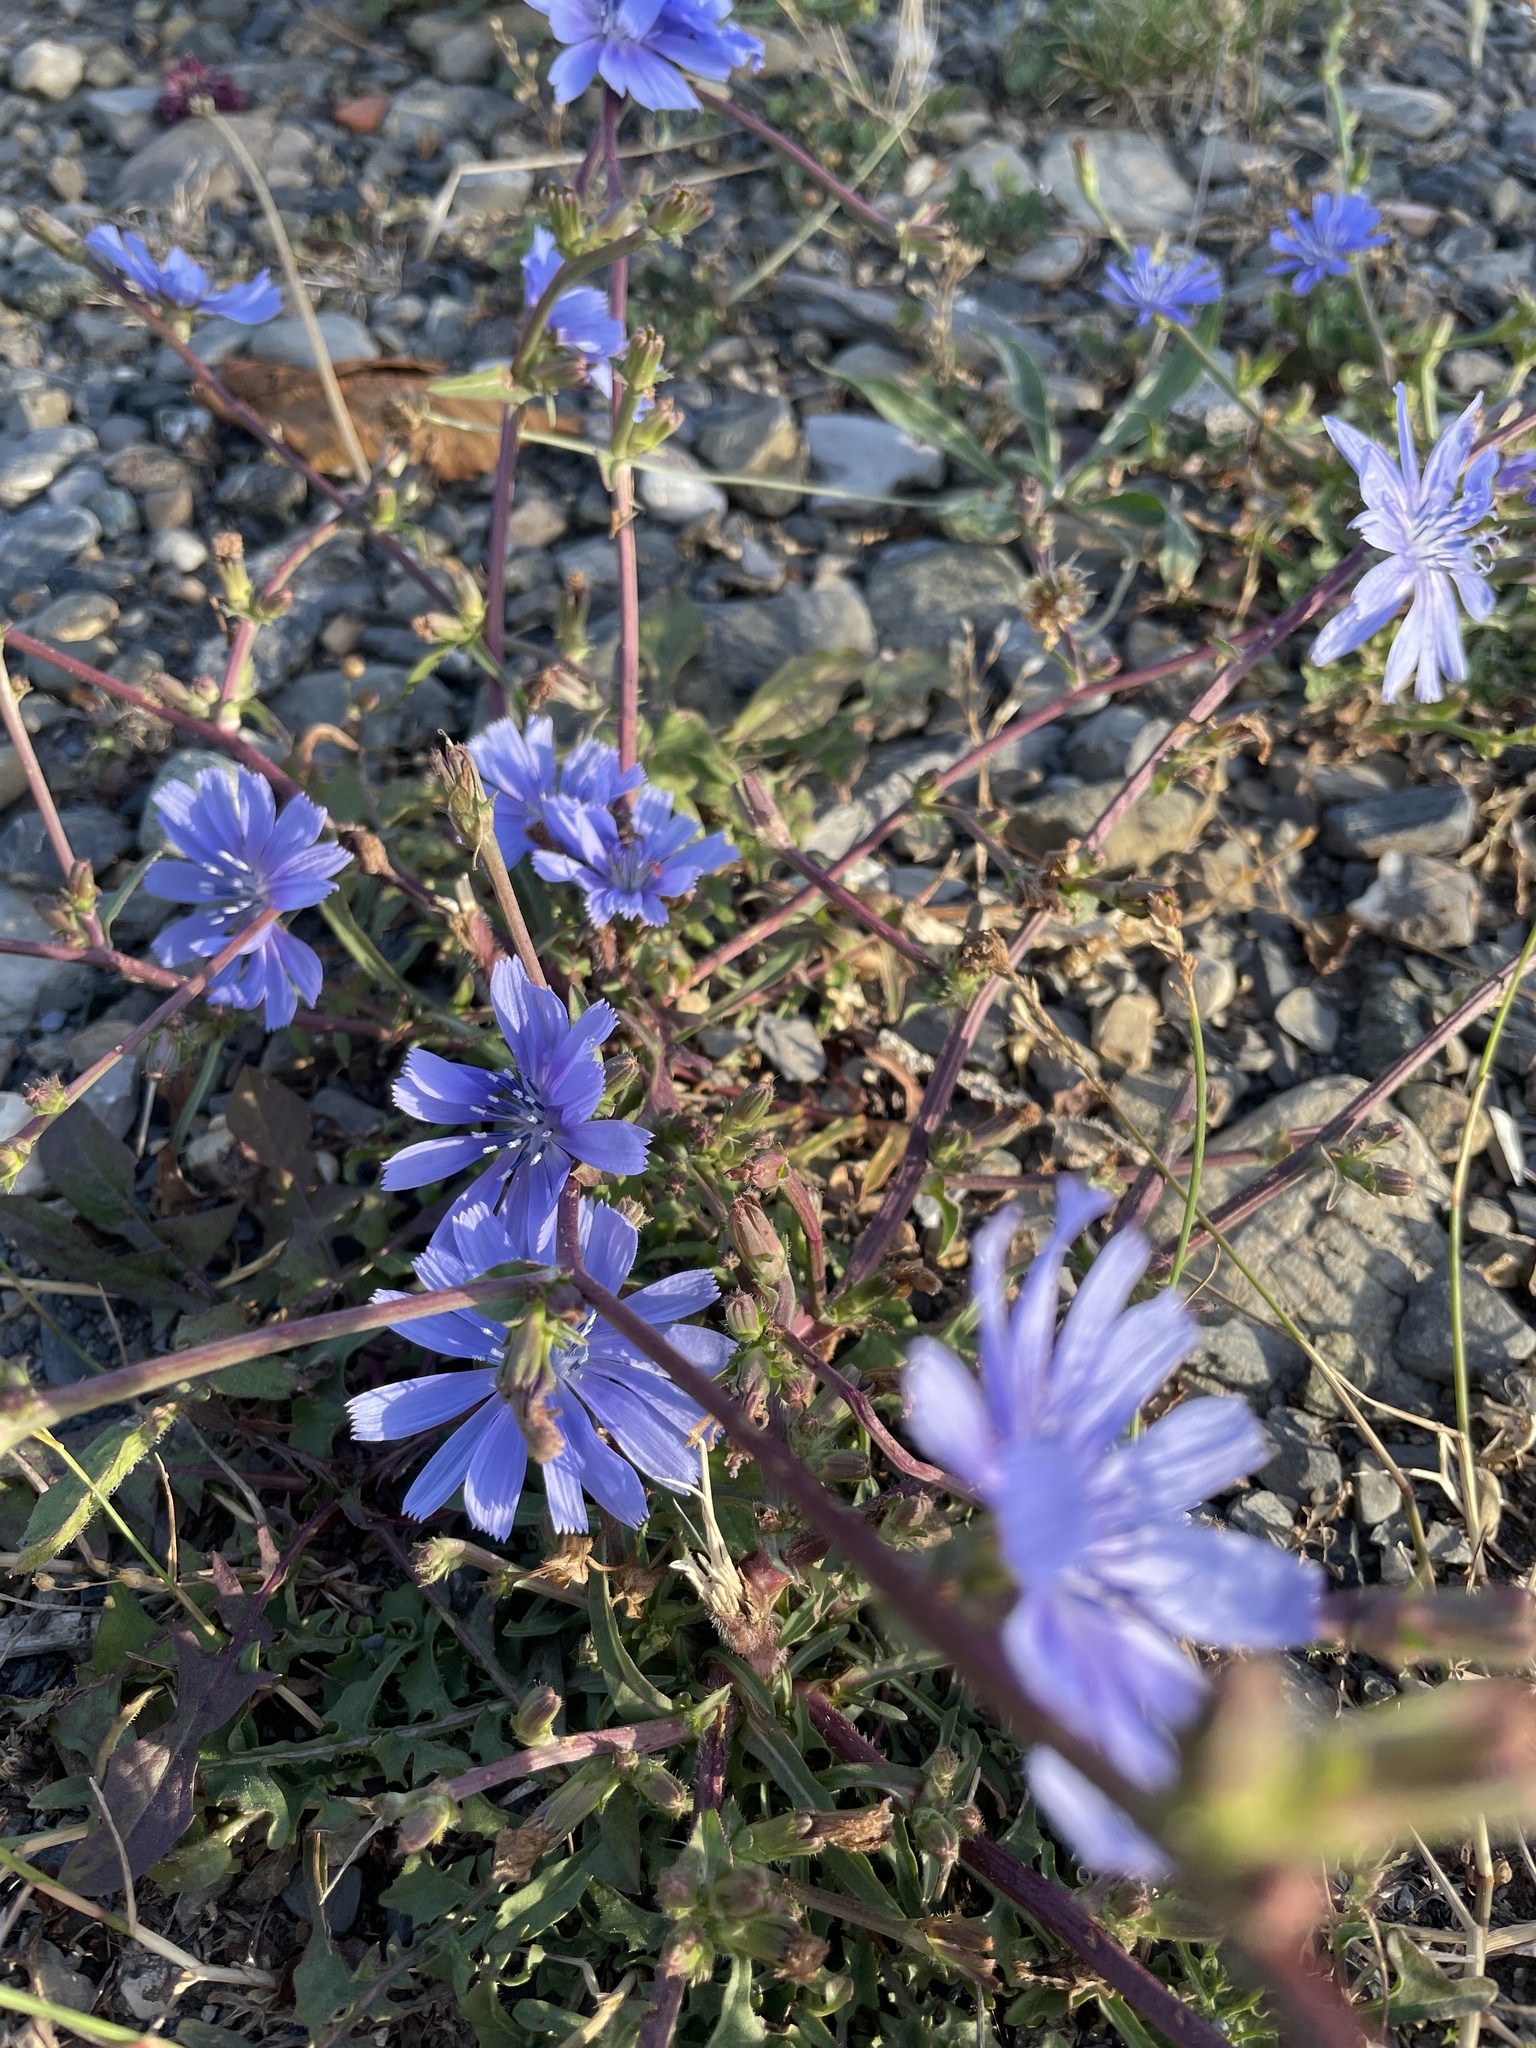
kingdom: Plantae
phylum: Tracheophyta
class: Magnoliopsida
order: Asterales
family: Asteraceae
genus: Cichorium
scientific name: Cichorium intybus
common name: Chicory
